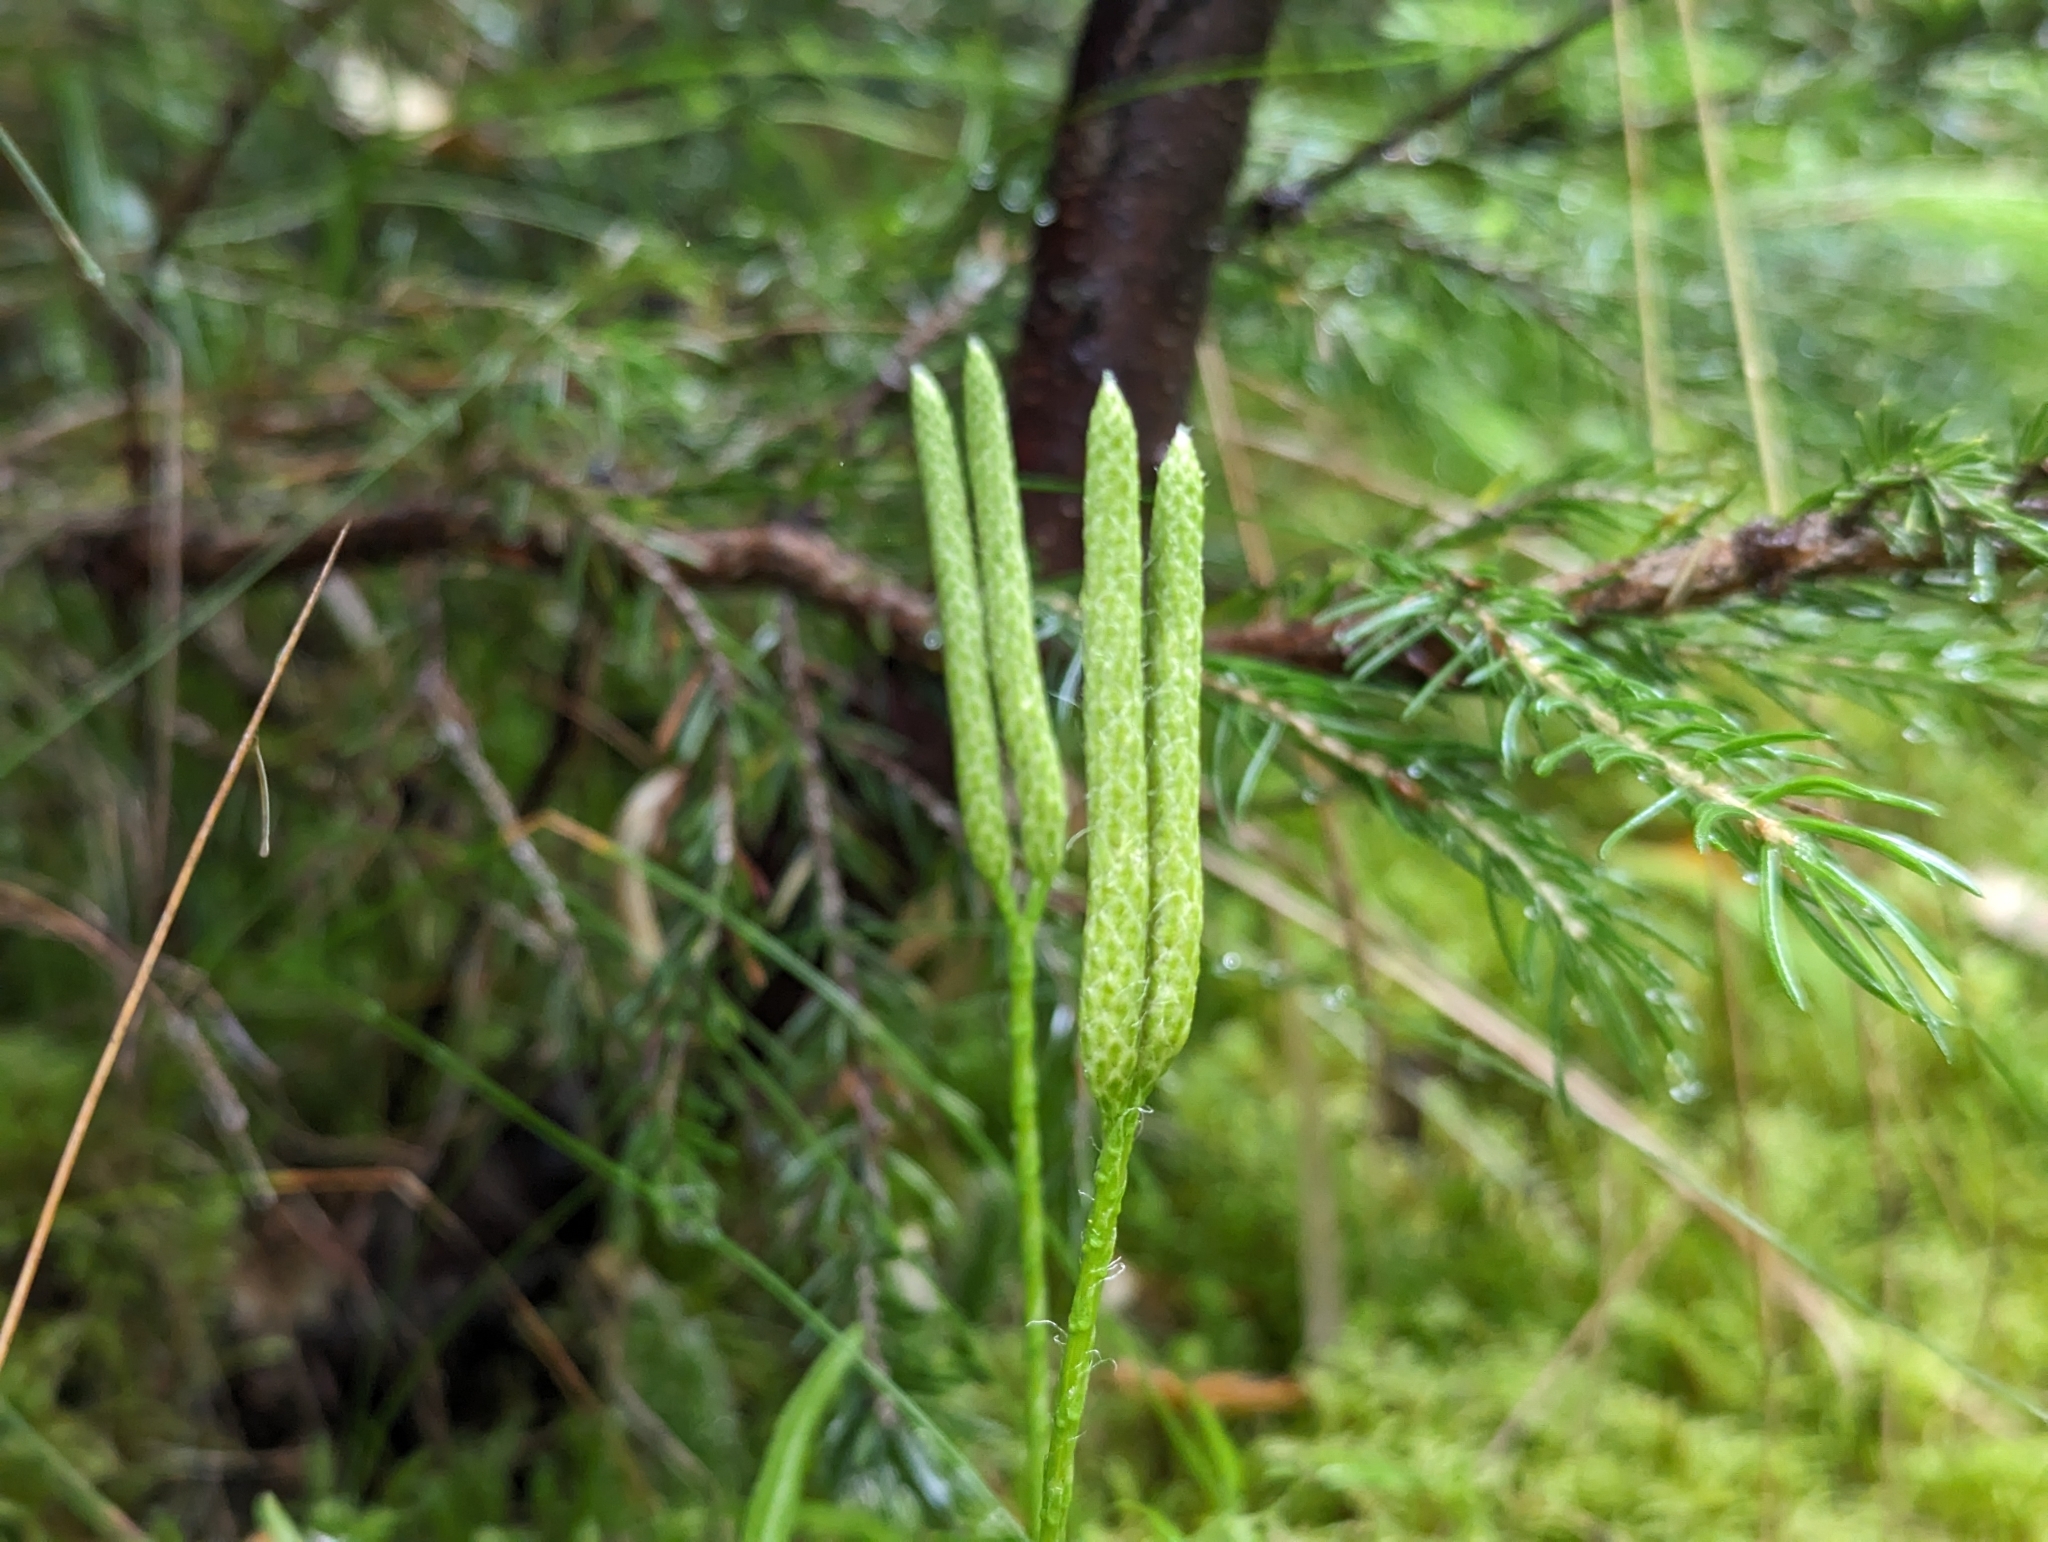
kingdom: Plantae
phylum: Tracheophyta
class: Lycopodiopsida
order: Lycopodiales
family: Lycopodiaceae
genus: Lycopodium
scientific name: Lycopodium clavatum
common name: Stag's-horn clubmoss
